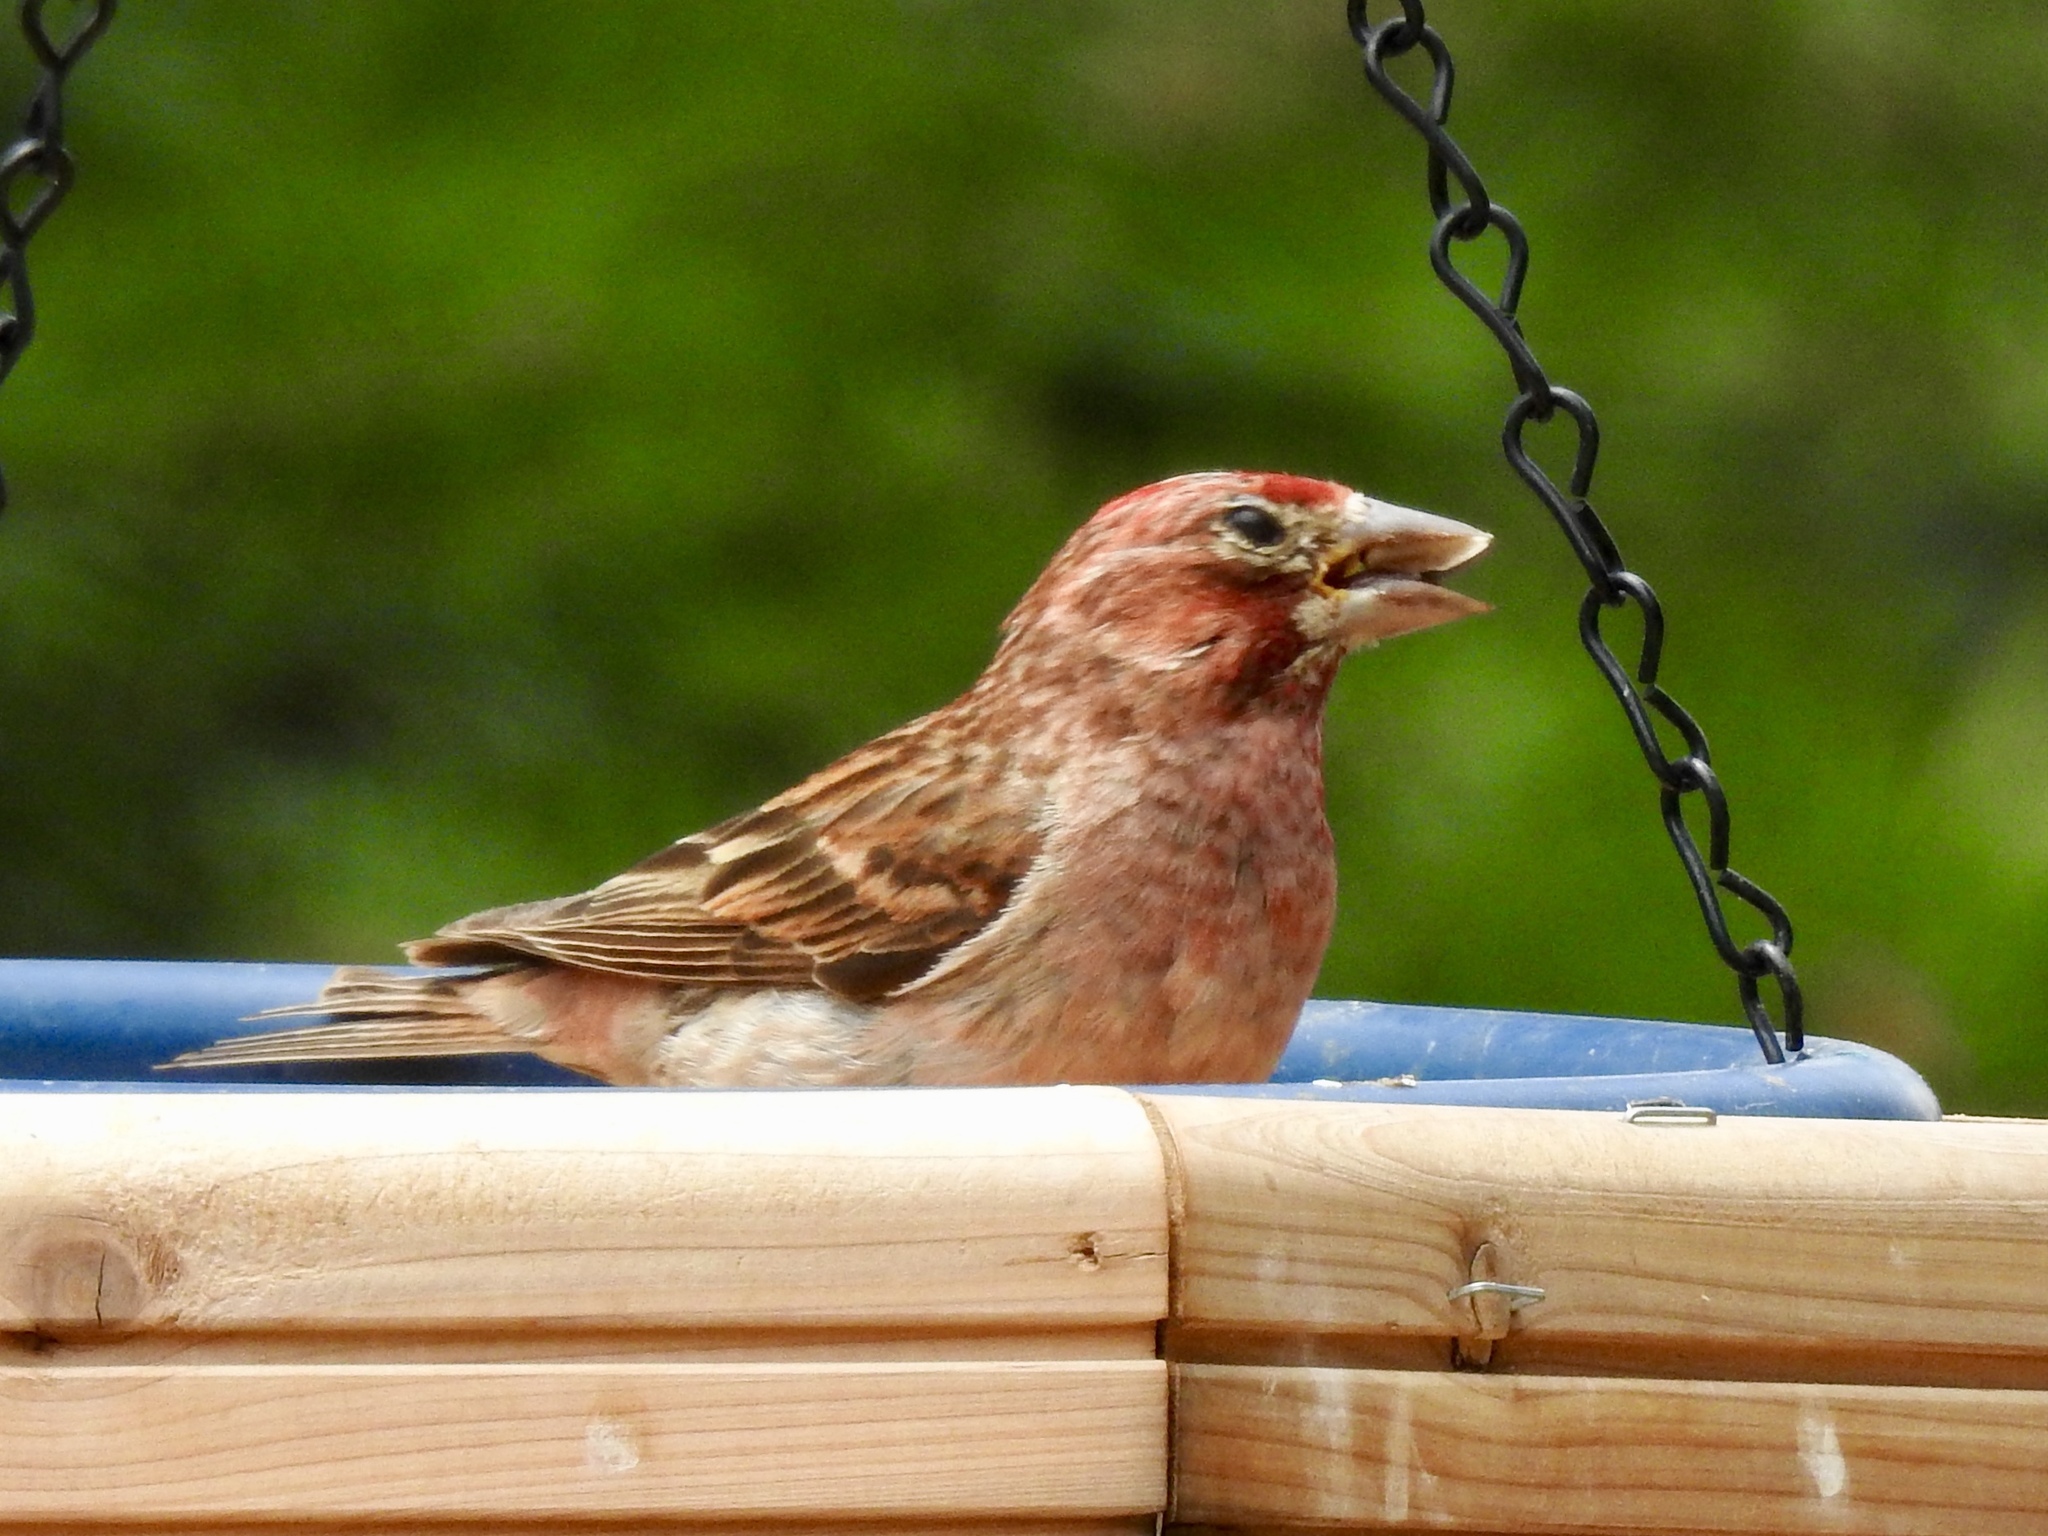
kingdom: Animalia
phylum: Chordata
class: Aves
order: Passeriformes
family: Fringillidae
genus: Haemorhous
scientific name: Haemorhous cassinii
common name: Cassin's finch
